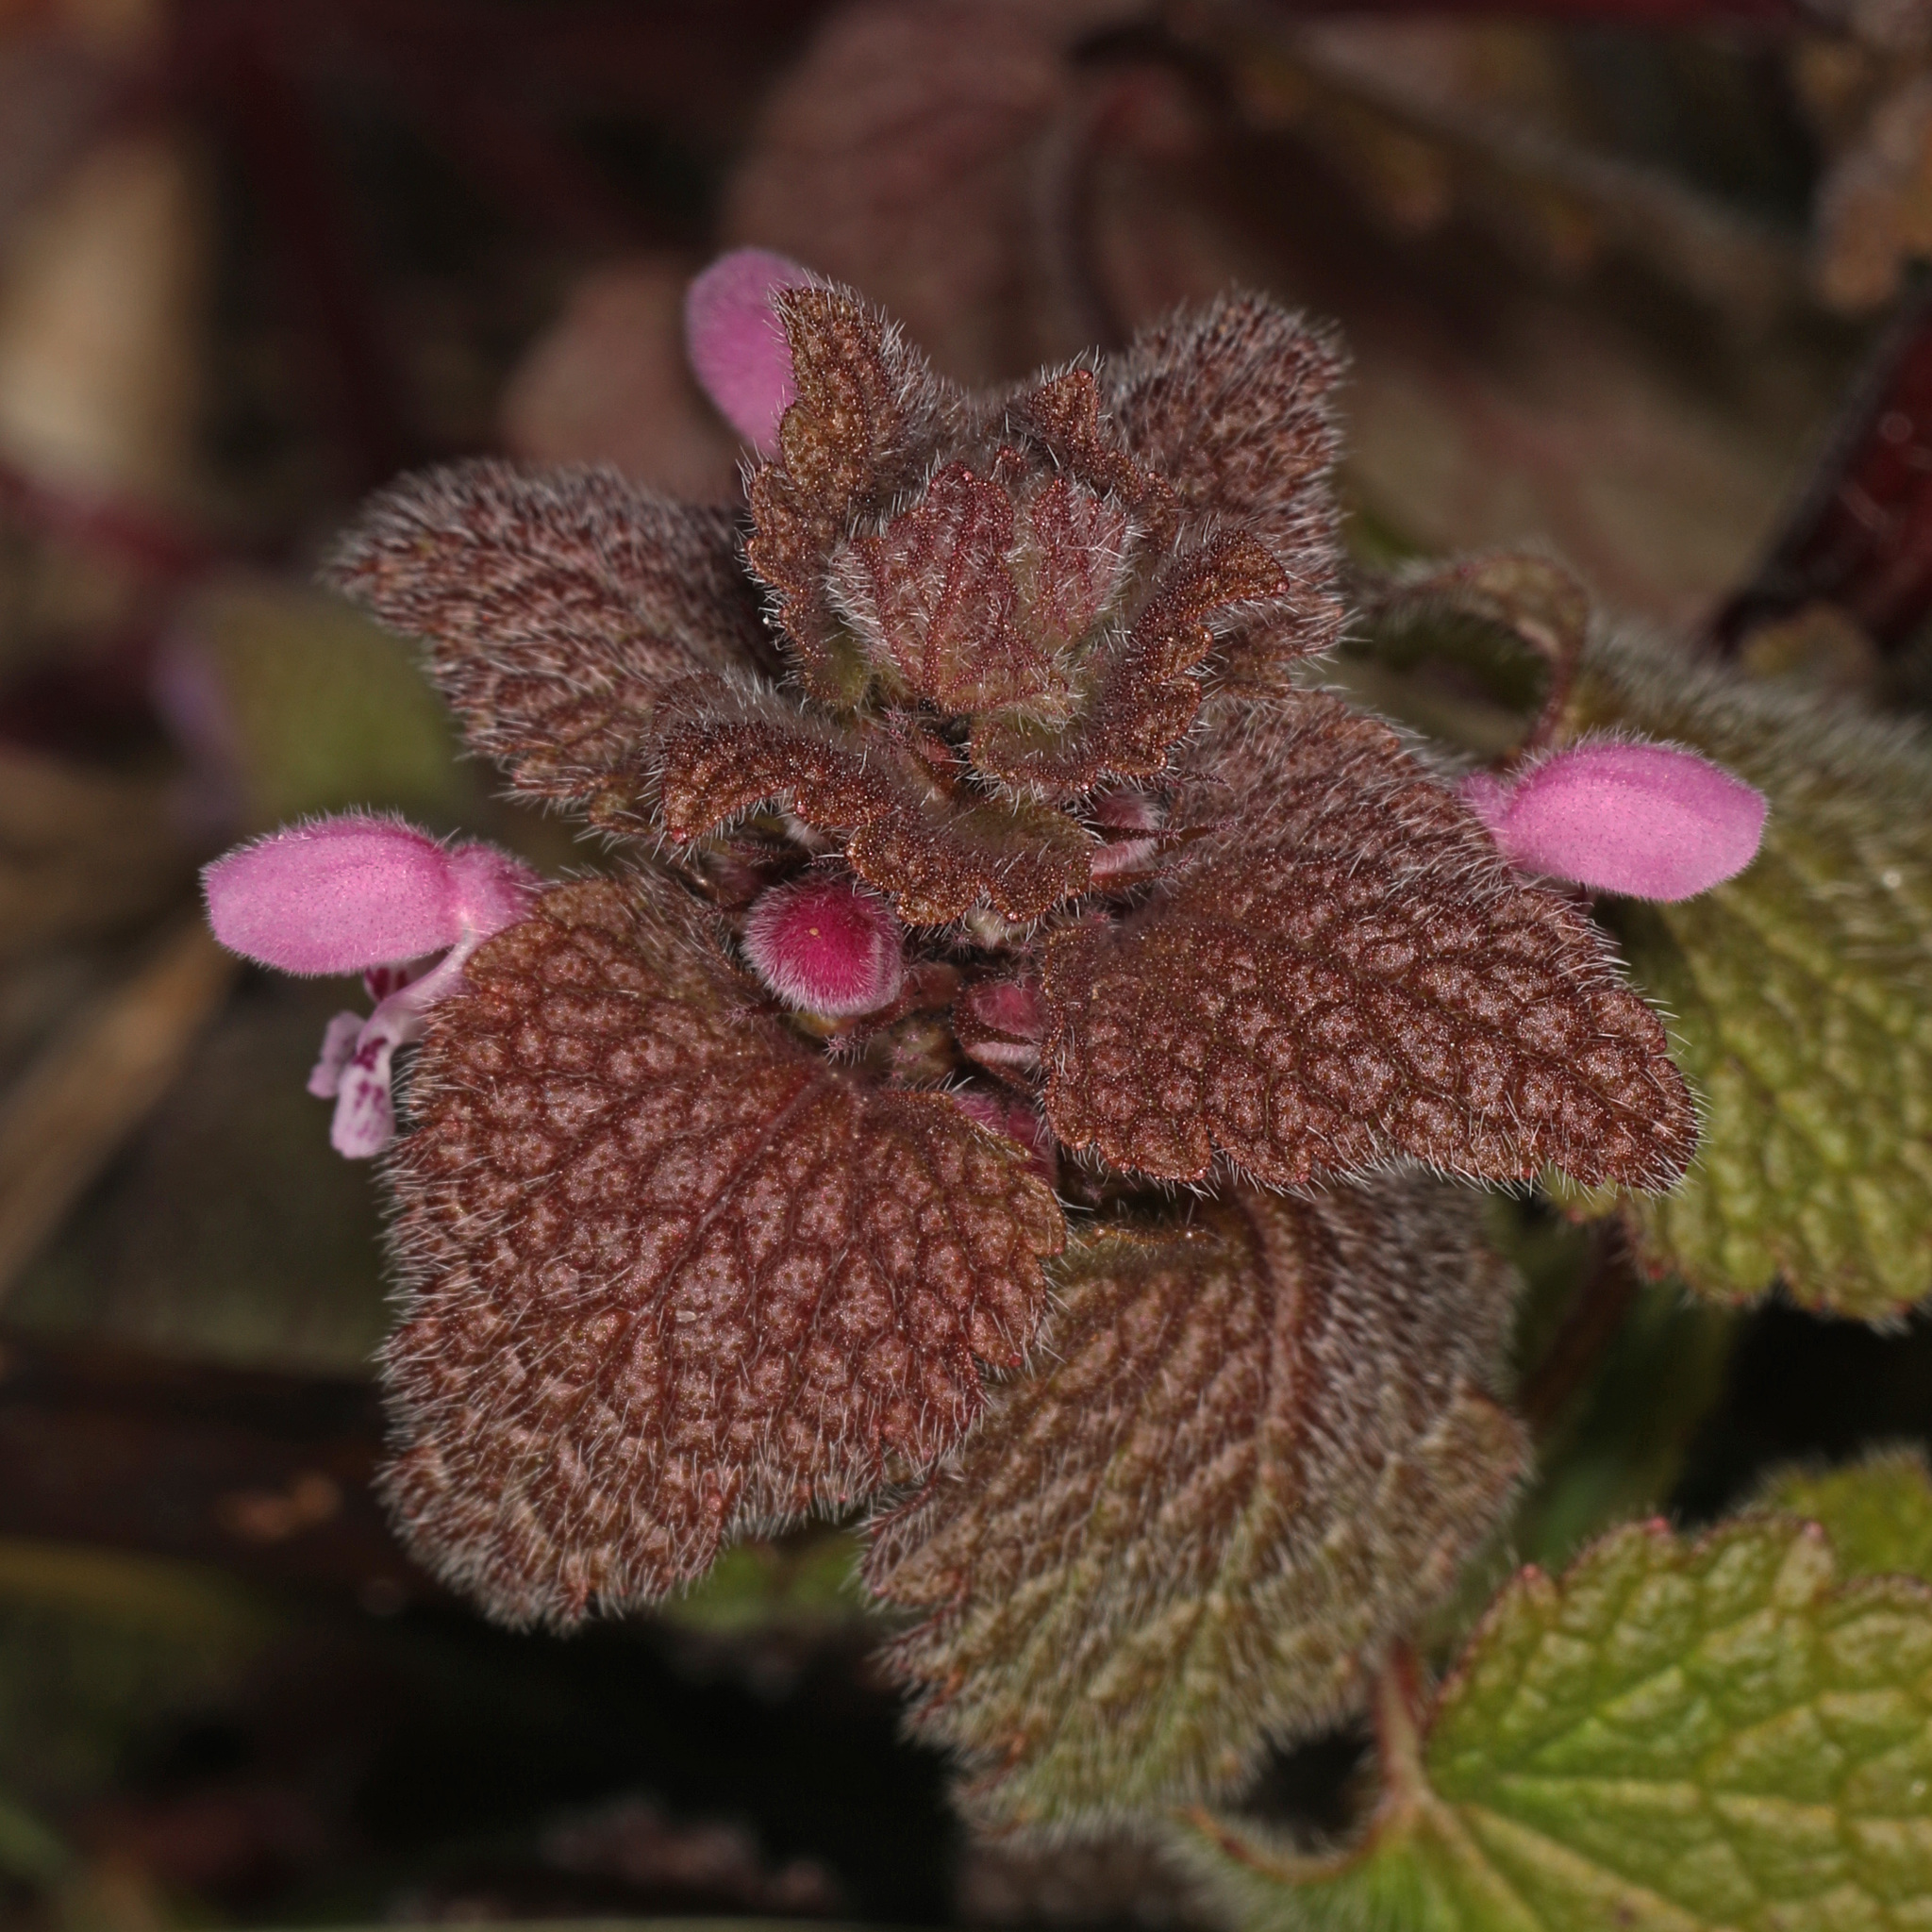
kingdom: Plantae
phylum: Tracheophyta
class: Magnoliopsida
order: Lamiales
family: Lamiaceae
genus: Lamium
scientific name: Lamium purpureum
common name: Red dead-nettle
